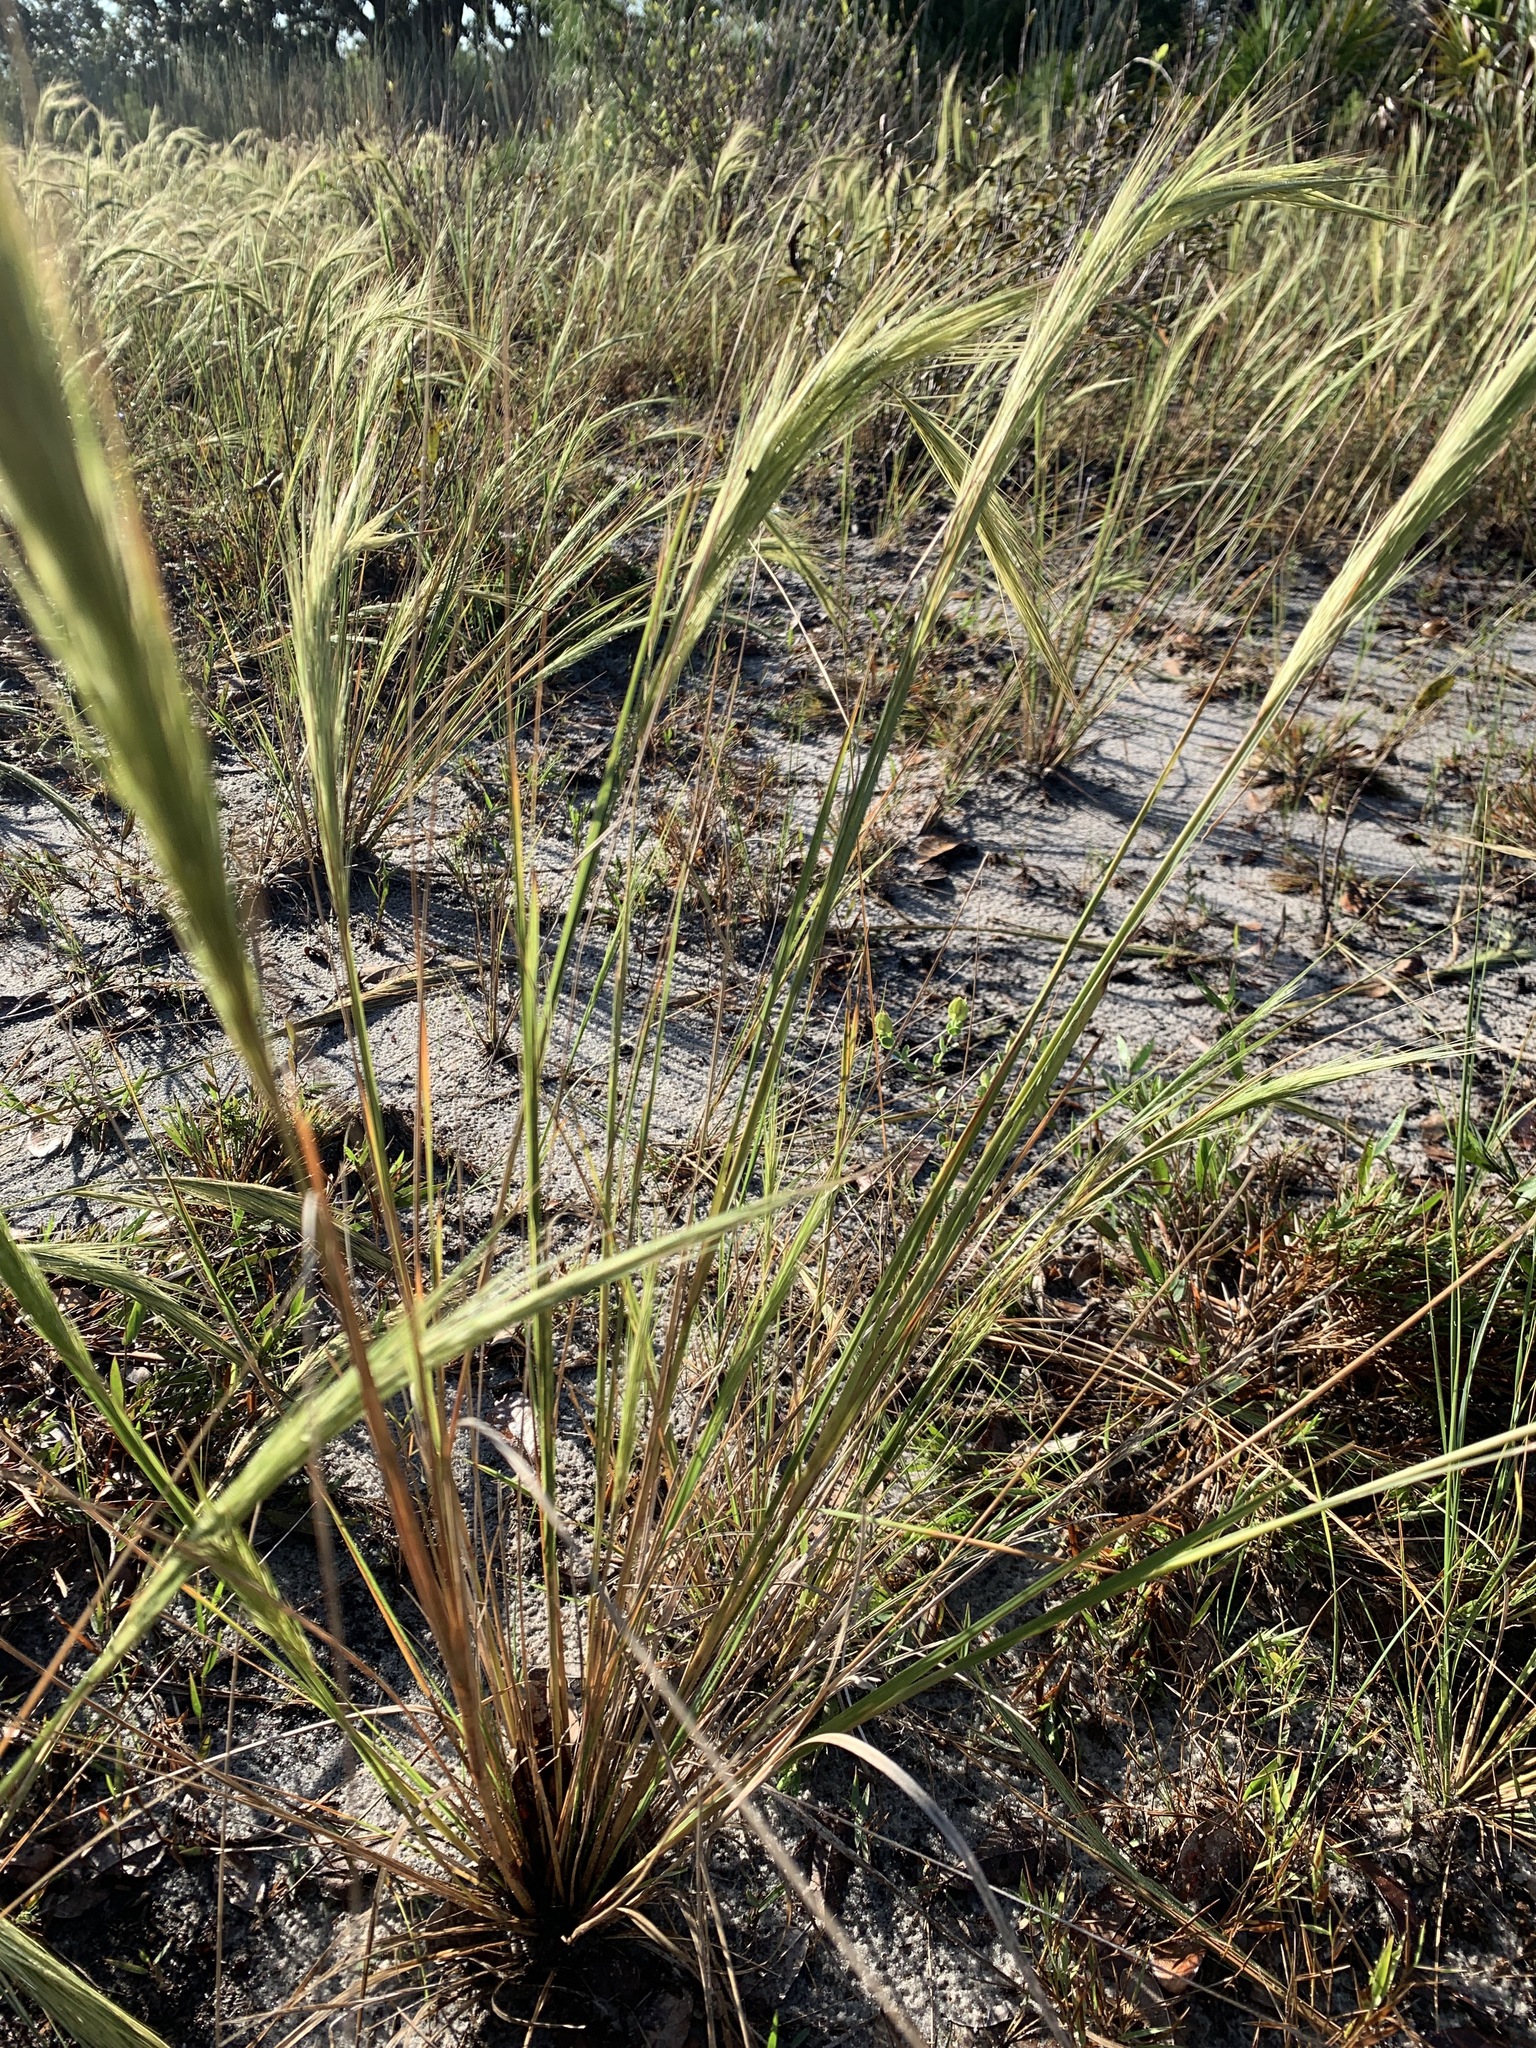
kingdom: Plantae
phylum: Tracheophyta
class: Liliopsida
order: Poales
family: Poaceae
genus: Aristida
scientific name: Aristida spiciformis
